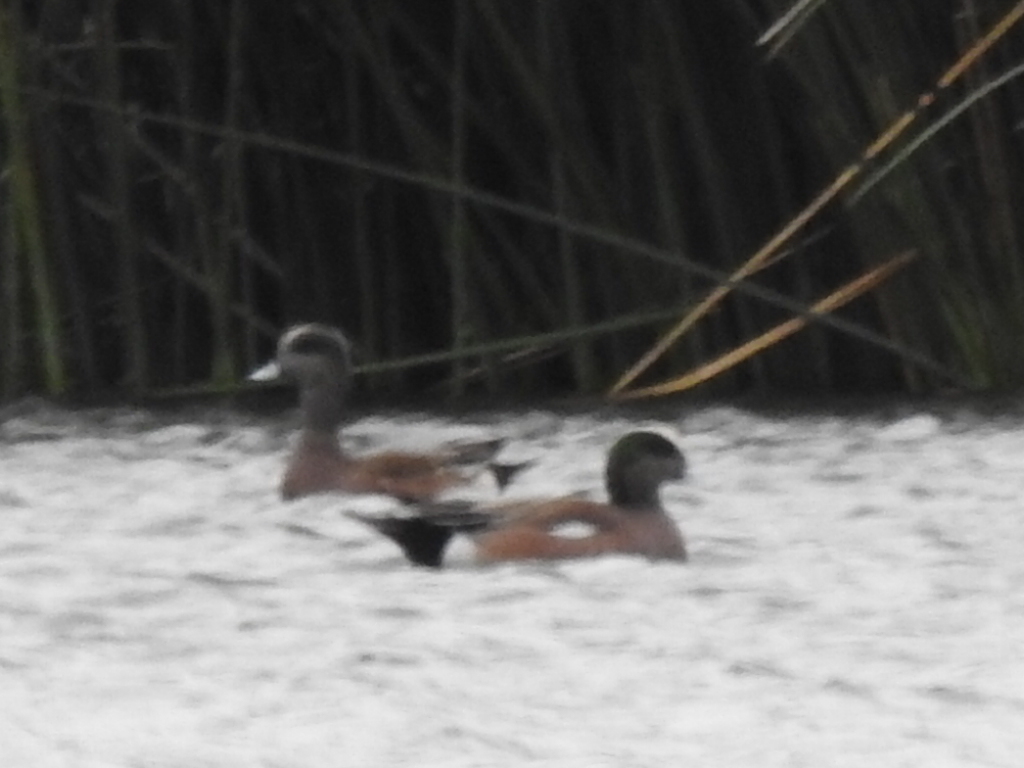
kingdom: Animalia
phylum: Chordata
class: Aves
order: Anseriformes
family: Anatidae
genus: Mareca
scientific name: Mareca americana
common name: American wigeon
